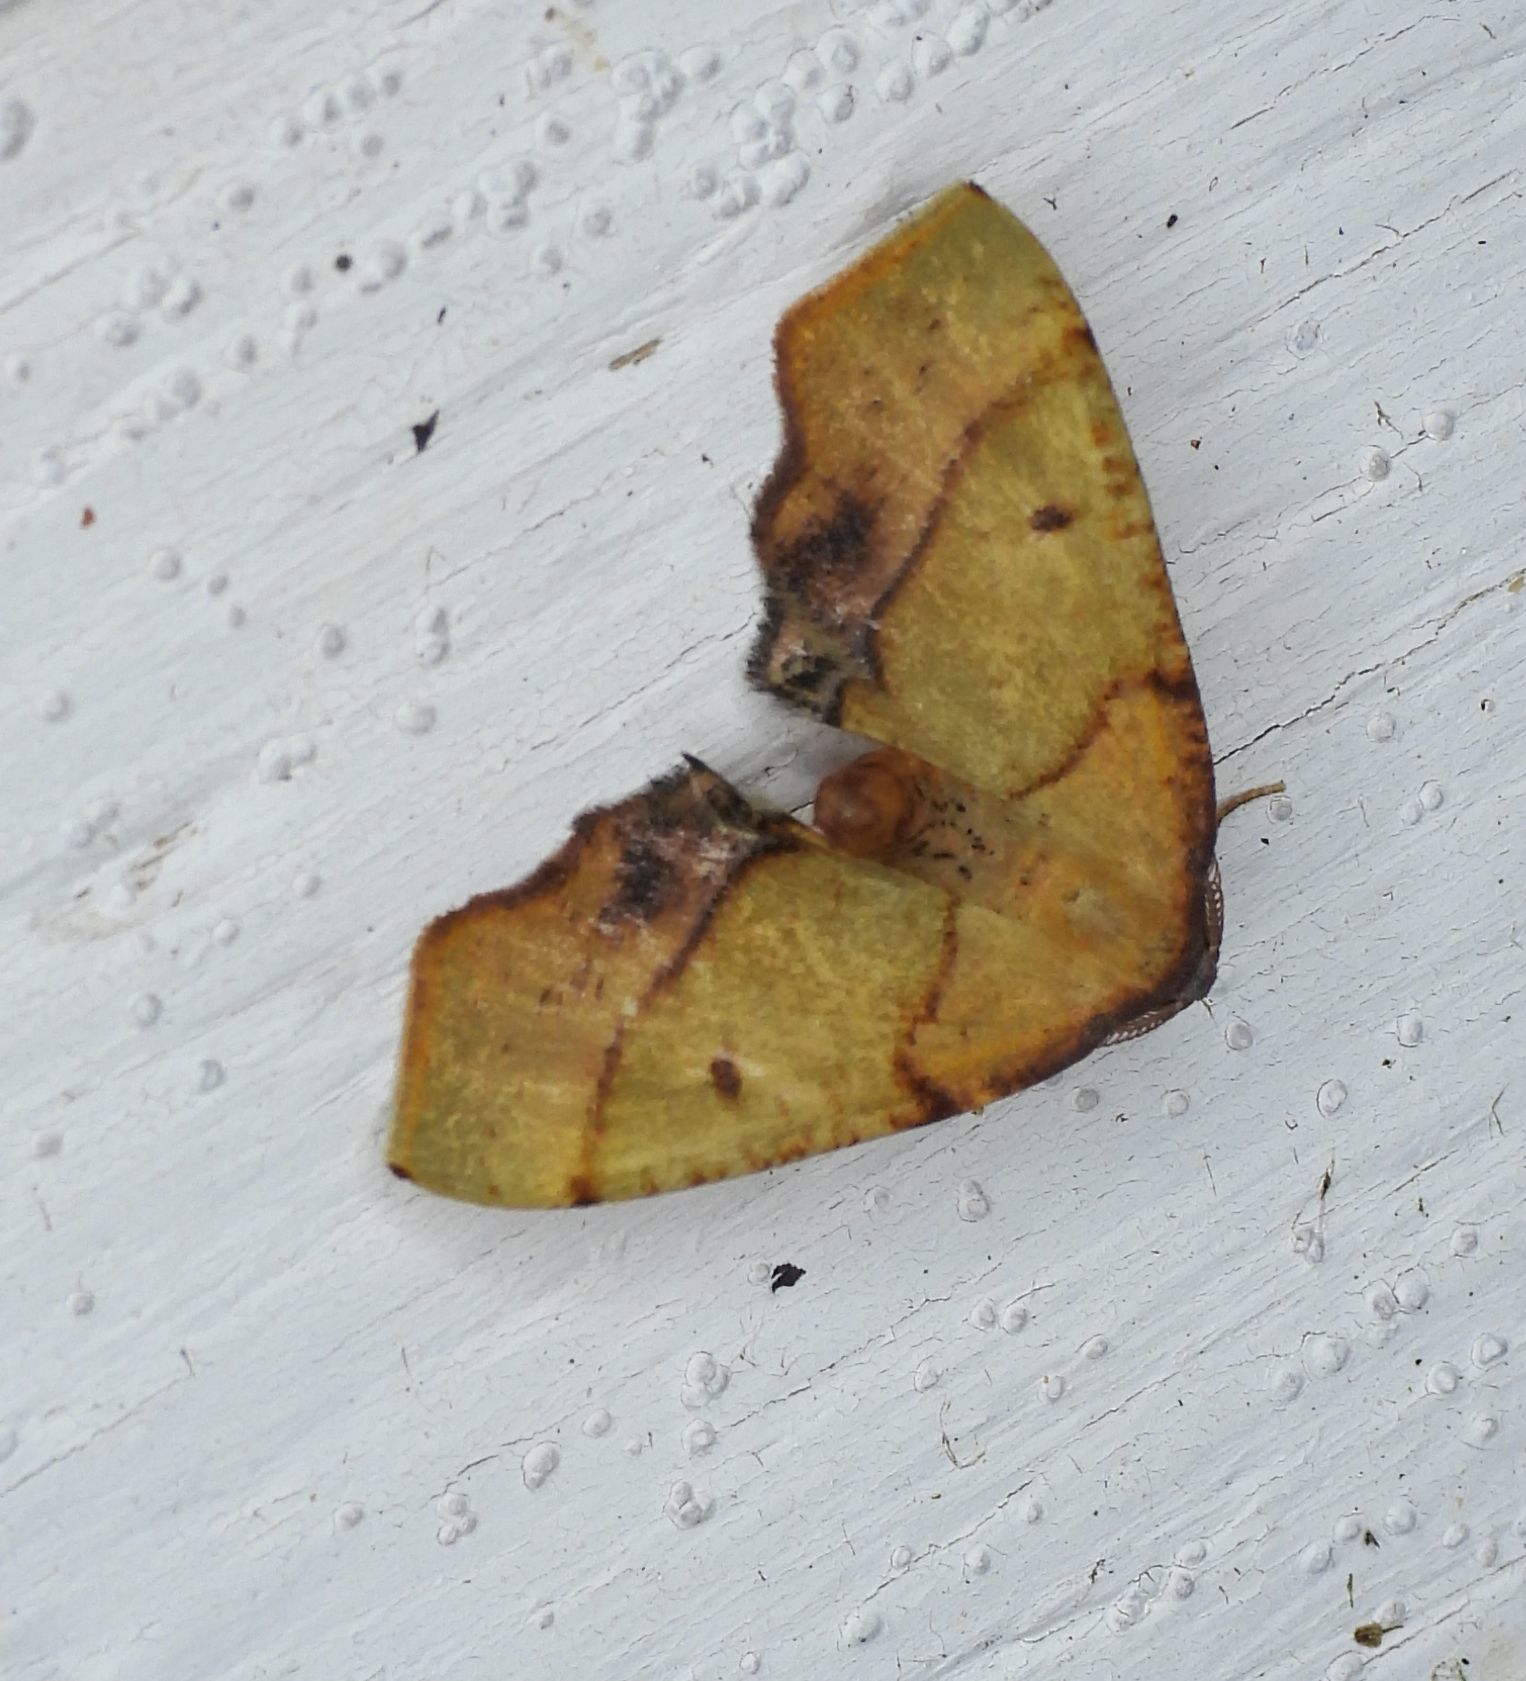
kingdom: Animalia
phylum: Arthropoda
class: Insecta
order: Lepidoptera
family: Geometridae
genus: Plagodis
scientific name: Plagodis phlogosaria
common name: Straight-lined plagodis
